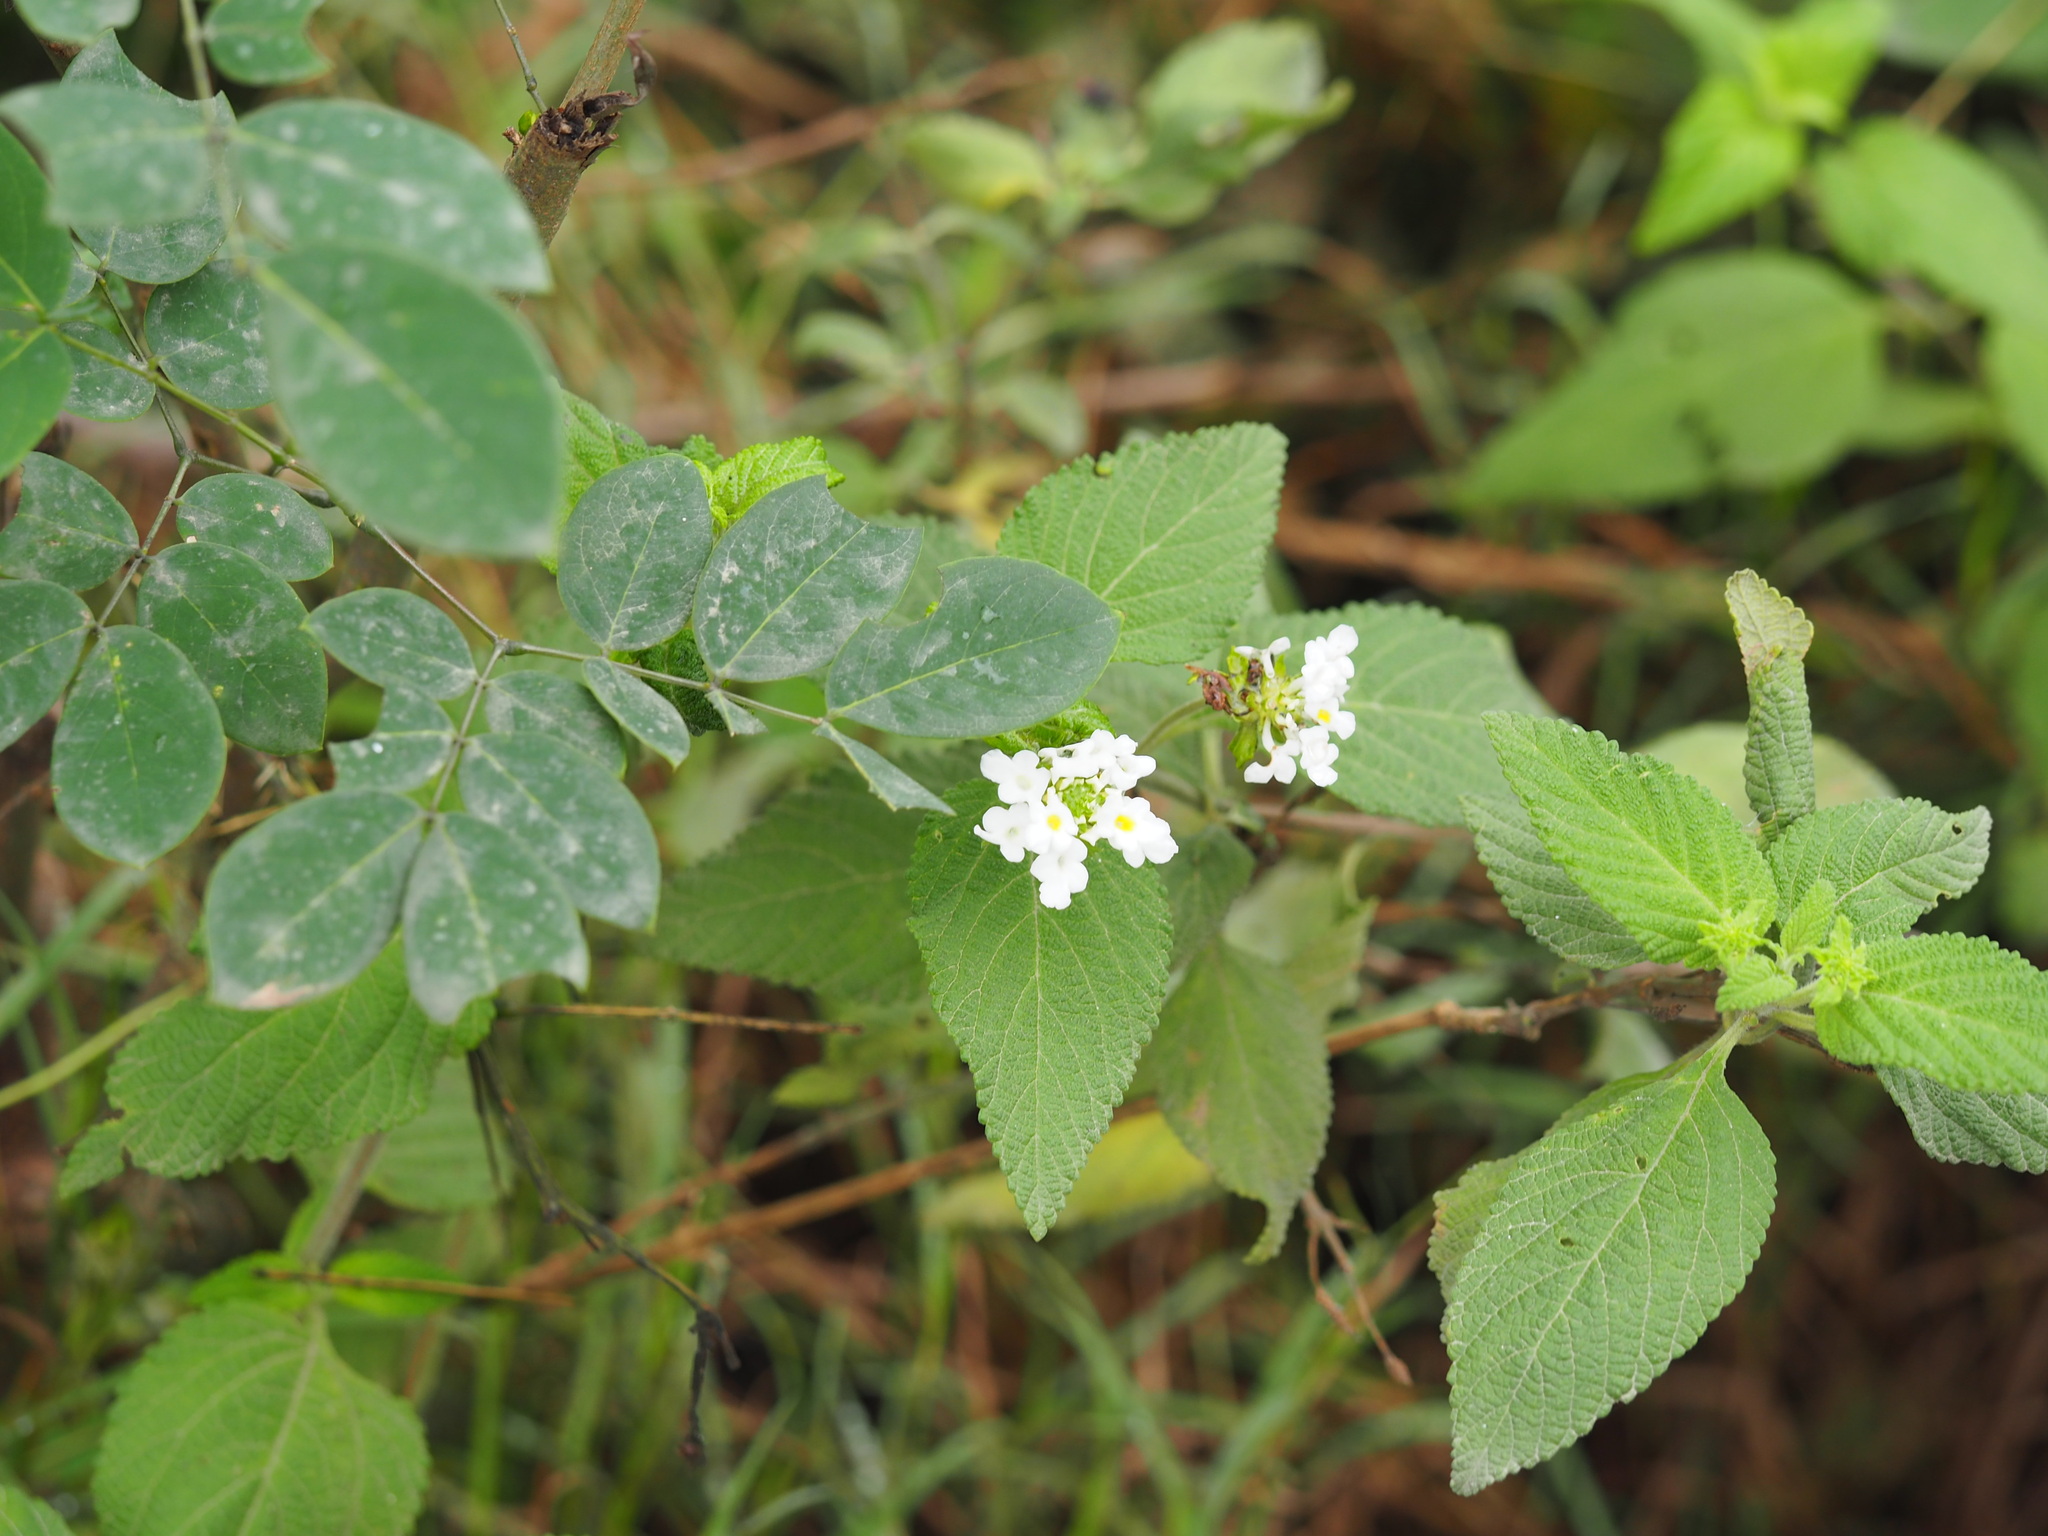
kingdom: Plantae
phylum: Tracheophyta
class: Magnoliopsida
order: Lamiales
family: Verbenaceae
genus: Lantana
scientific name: Lantana velutina
